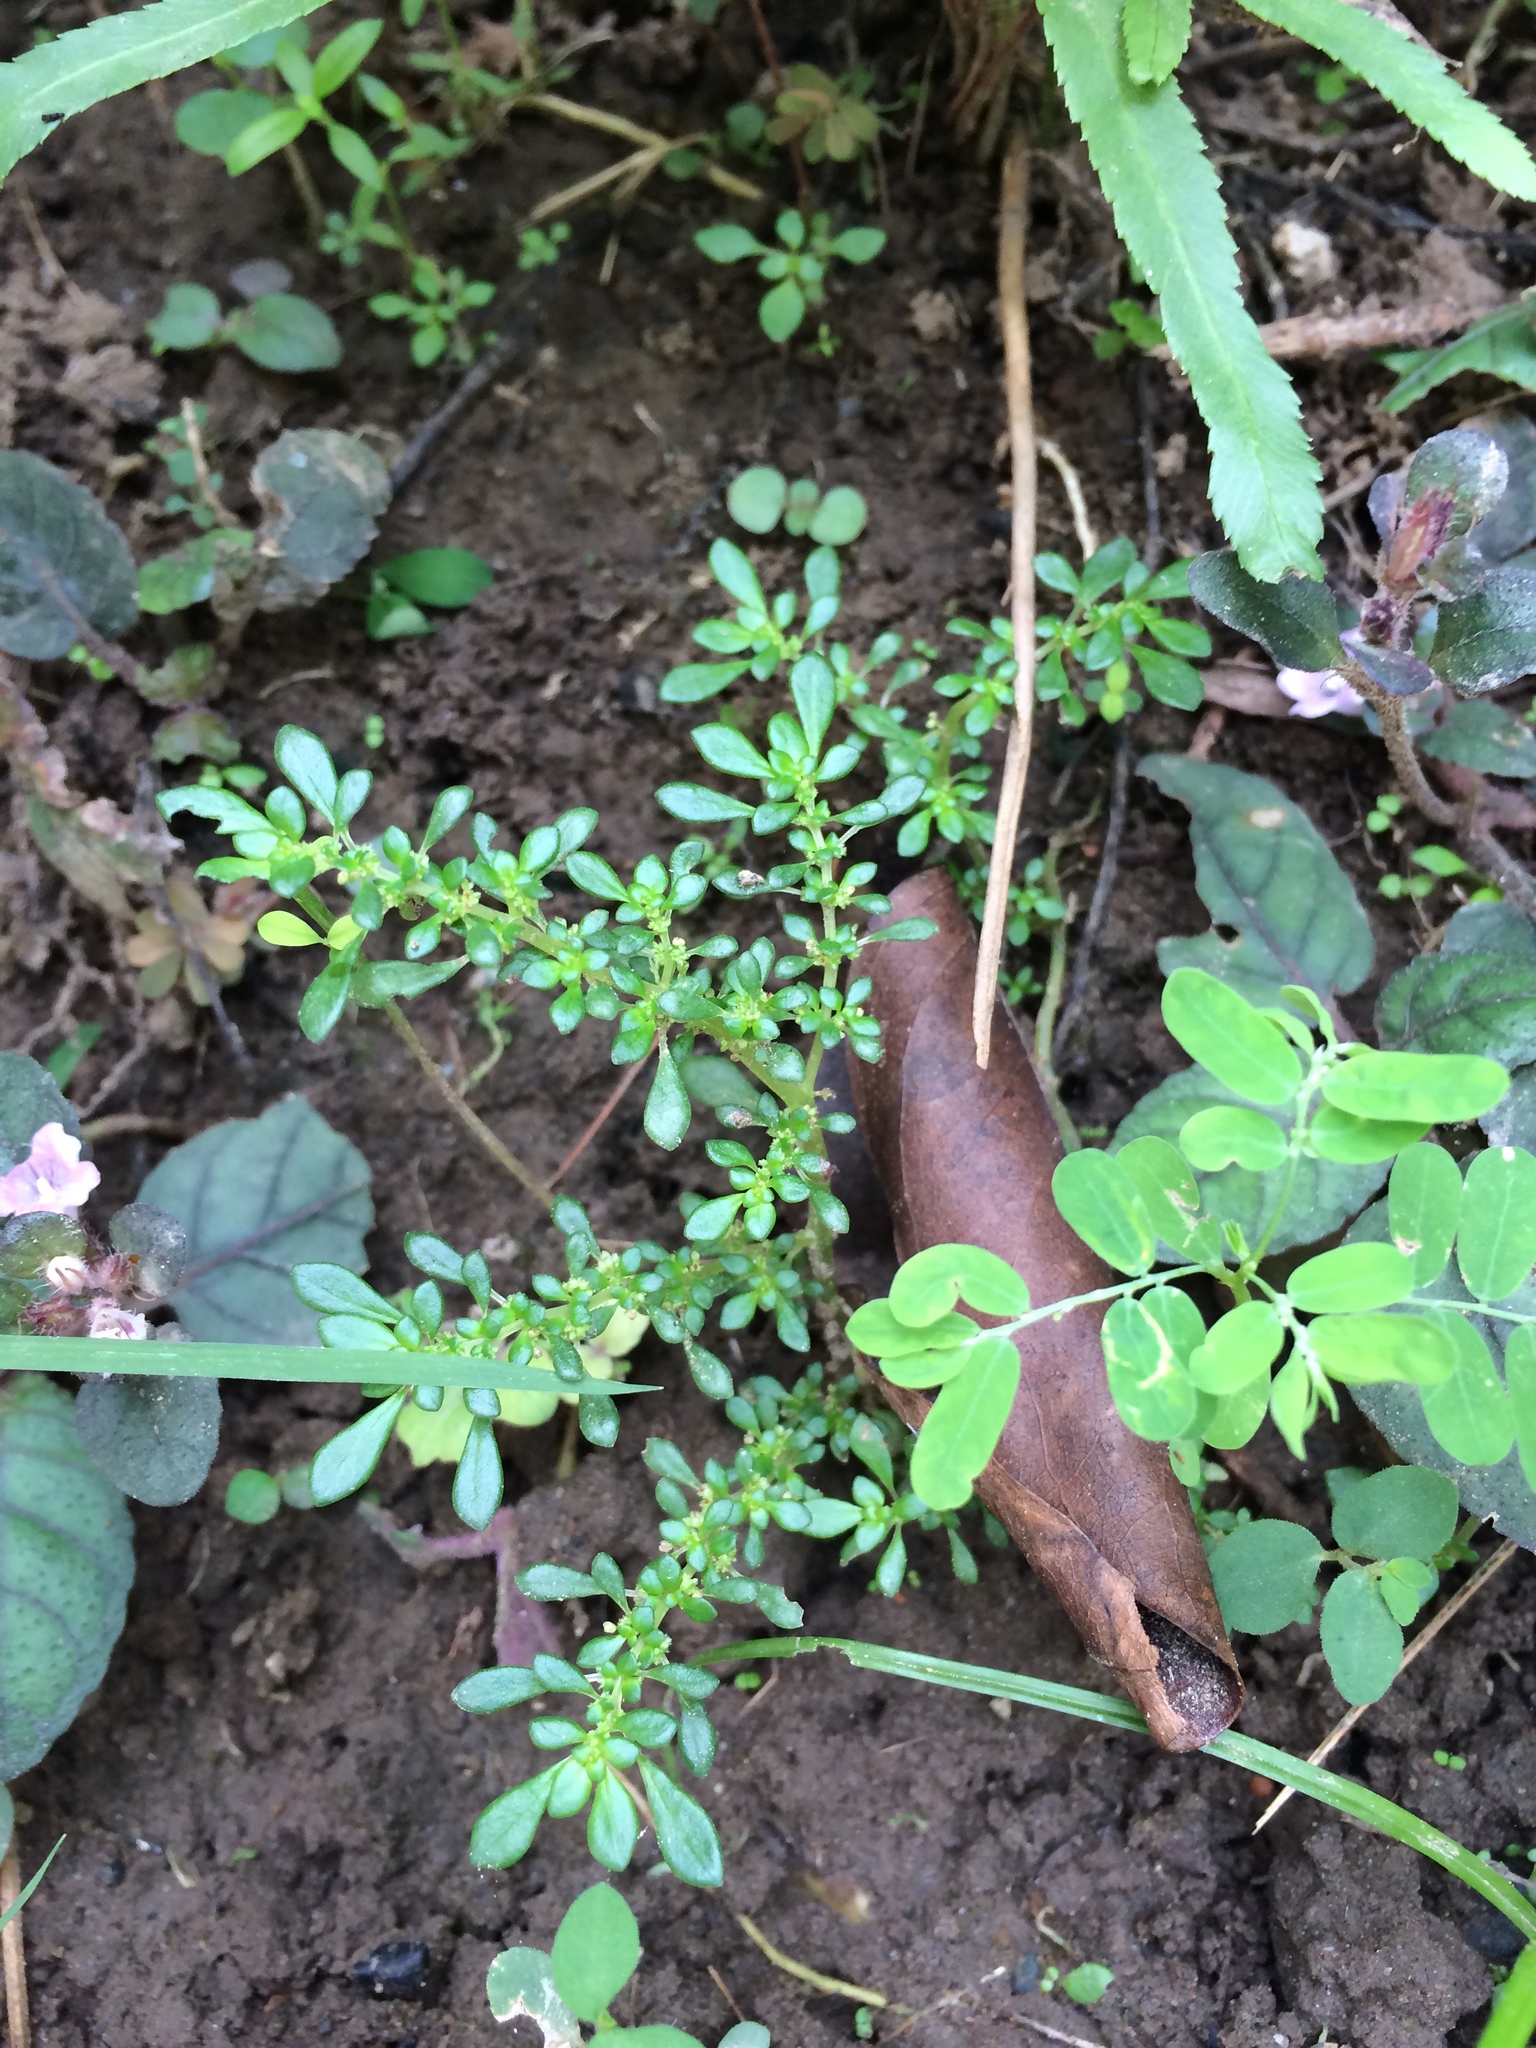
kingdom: Plantae
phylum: Tracheophyta
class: Magnoliopsida
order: Rosales
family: Urticaceae
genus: Pilea
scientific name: Pilea microphylla
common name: Artillery-plant
